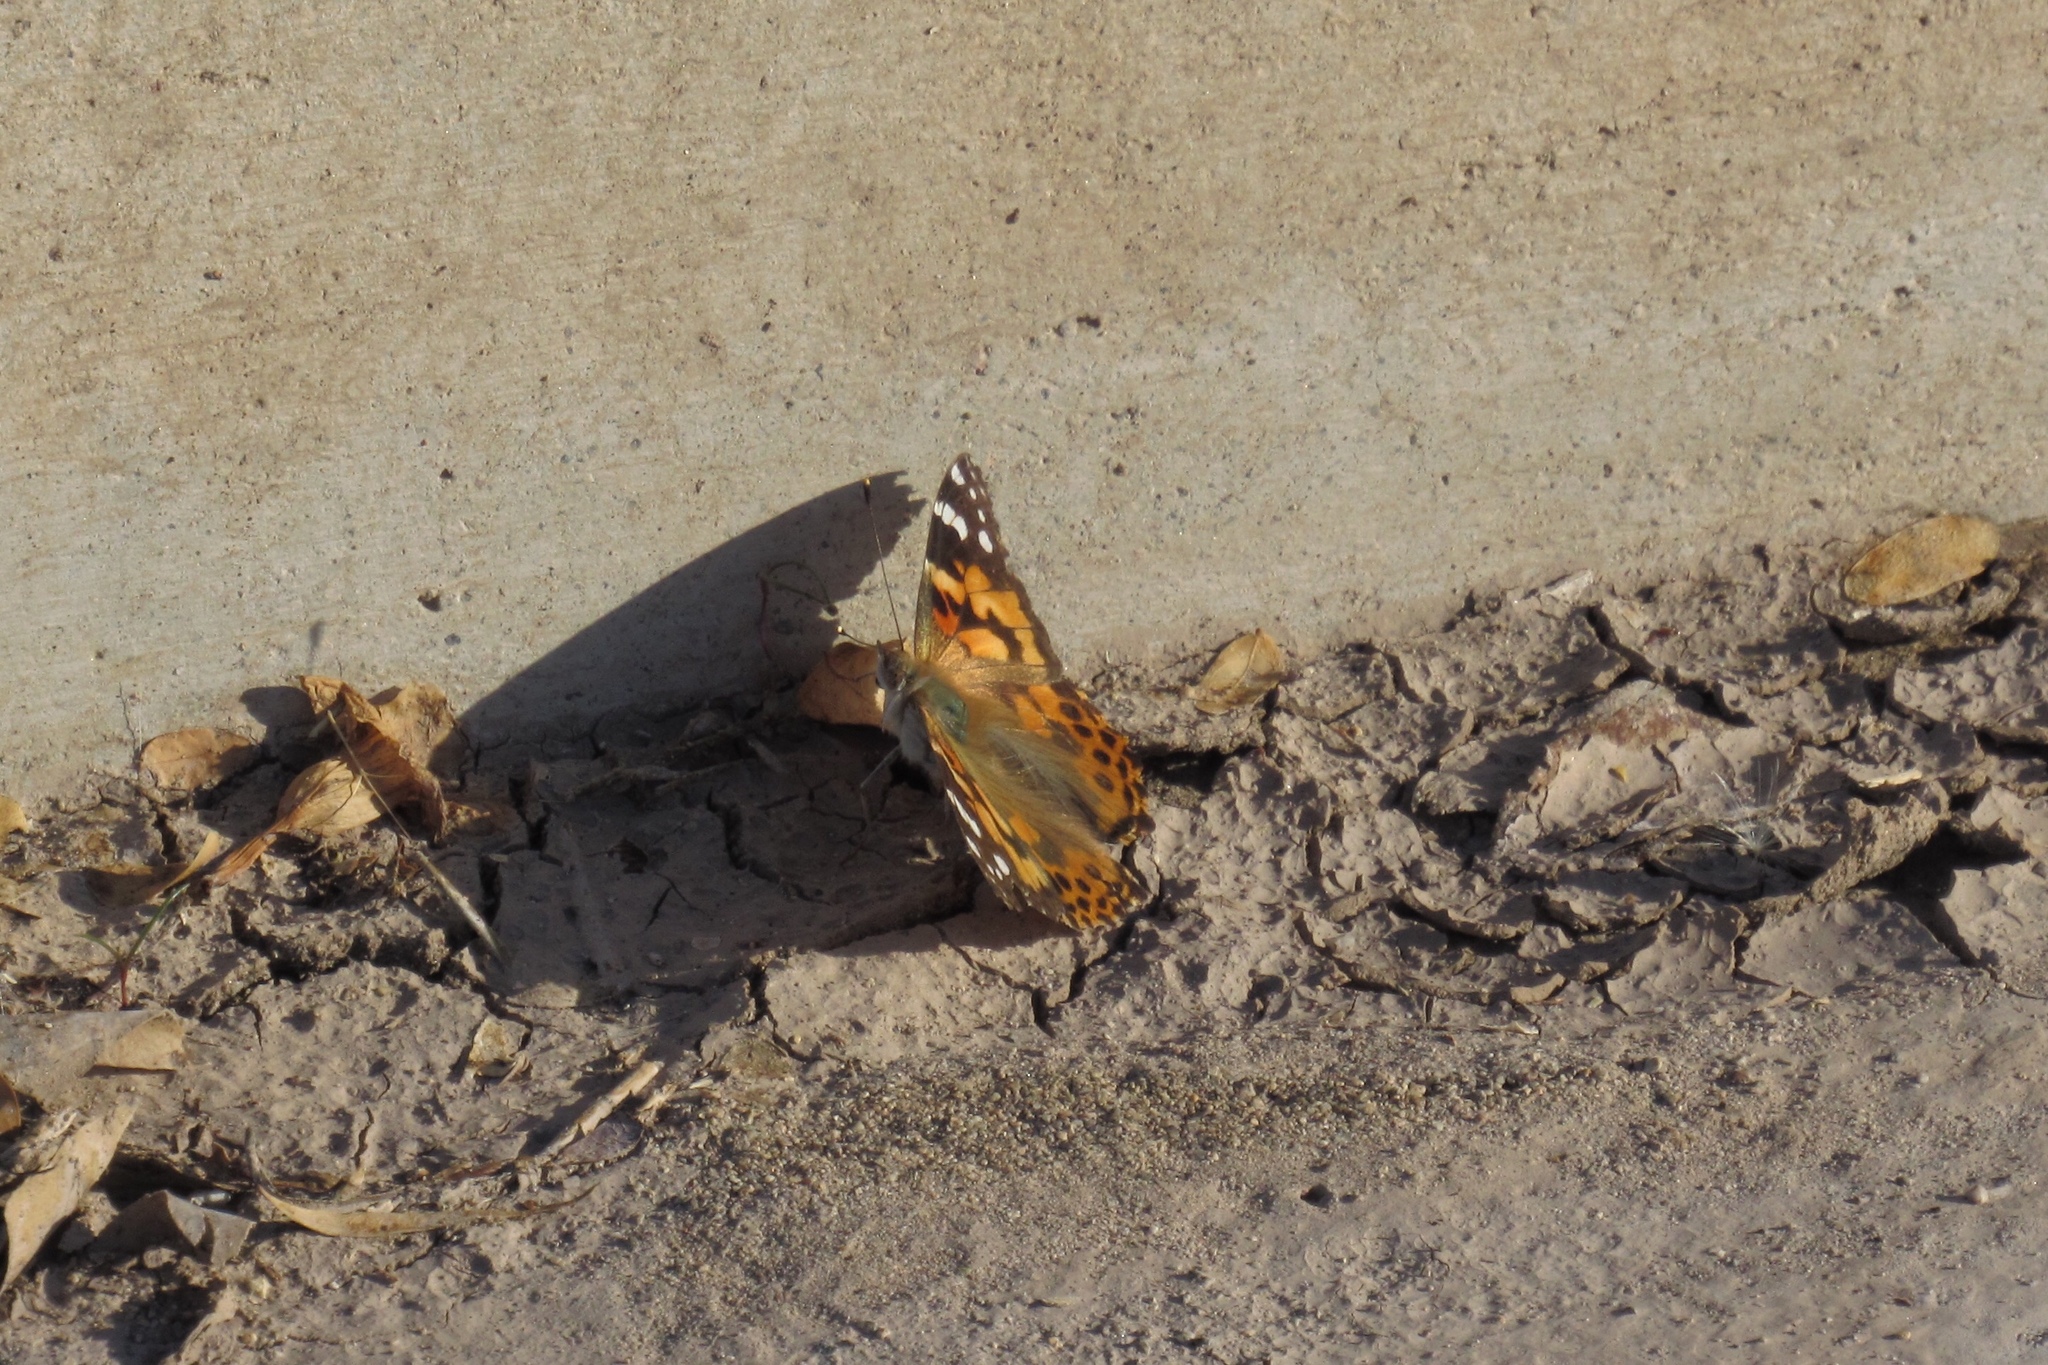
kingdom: Animalia
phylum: Arthropoda
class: Insecta
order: Lepidoptera
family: Nymphalidae
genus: Vanessa
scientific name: Vanessa cardui
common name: Painted lady
